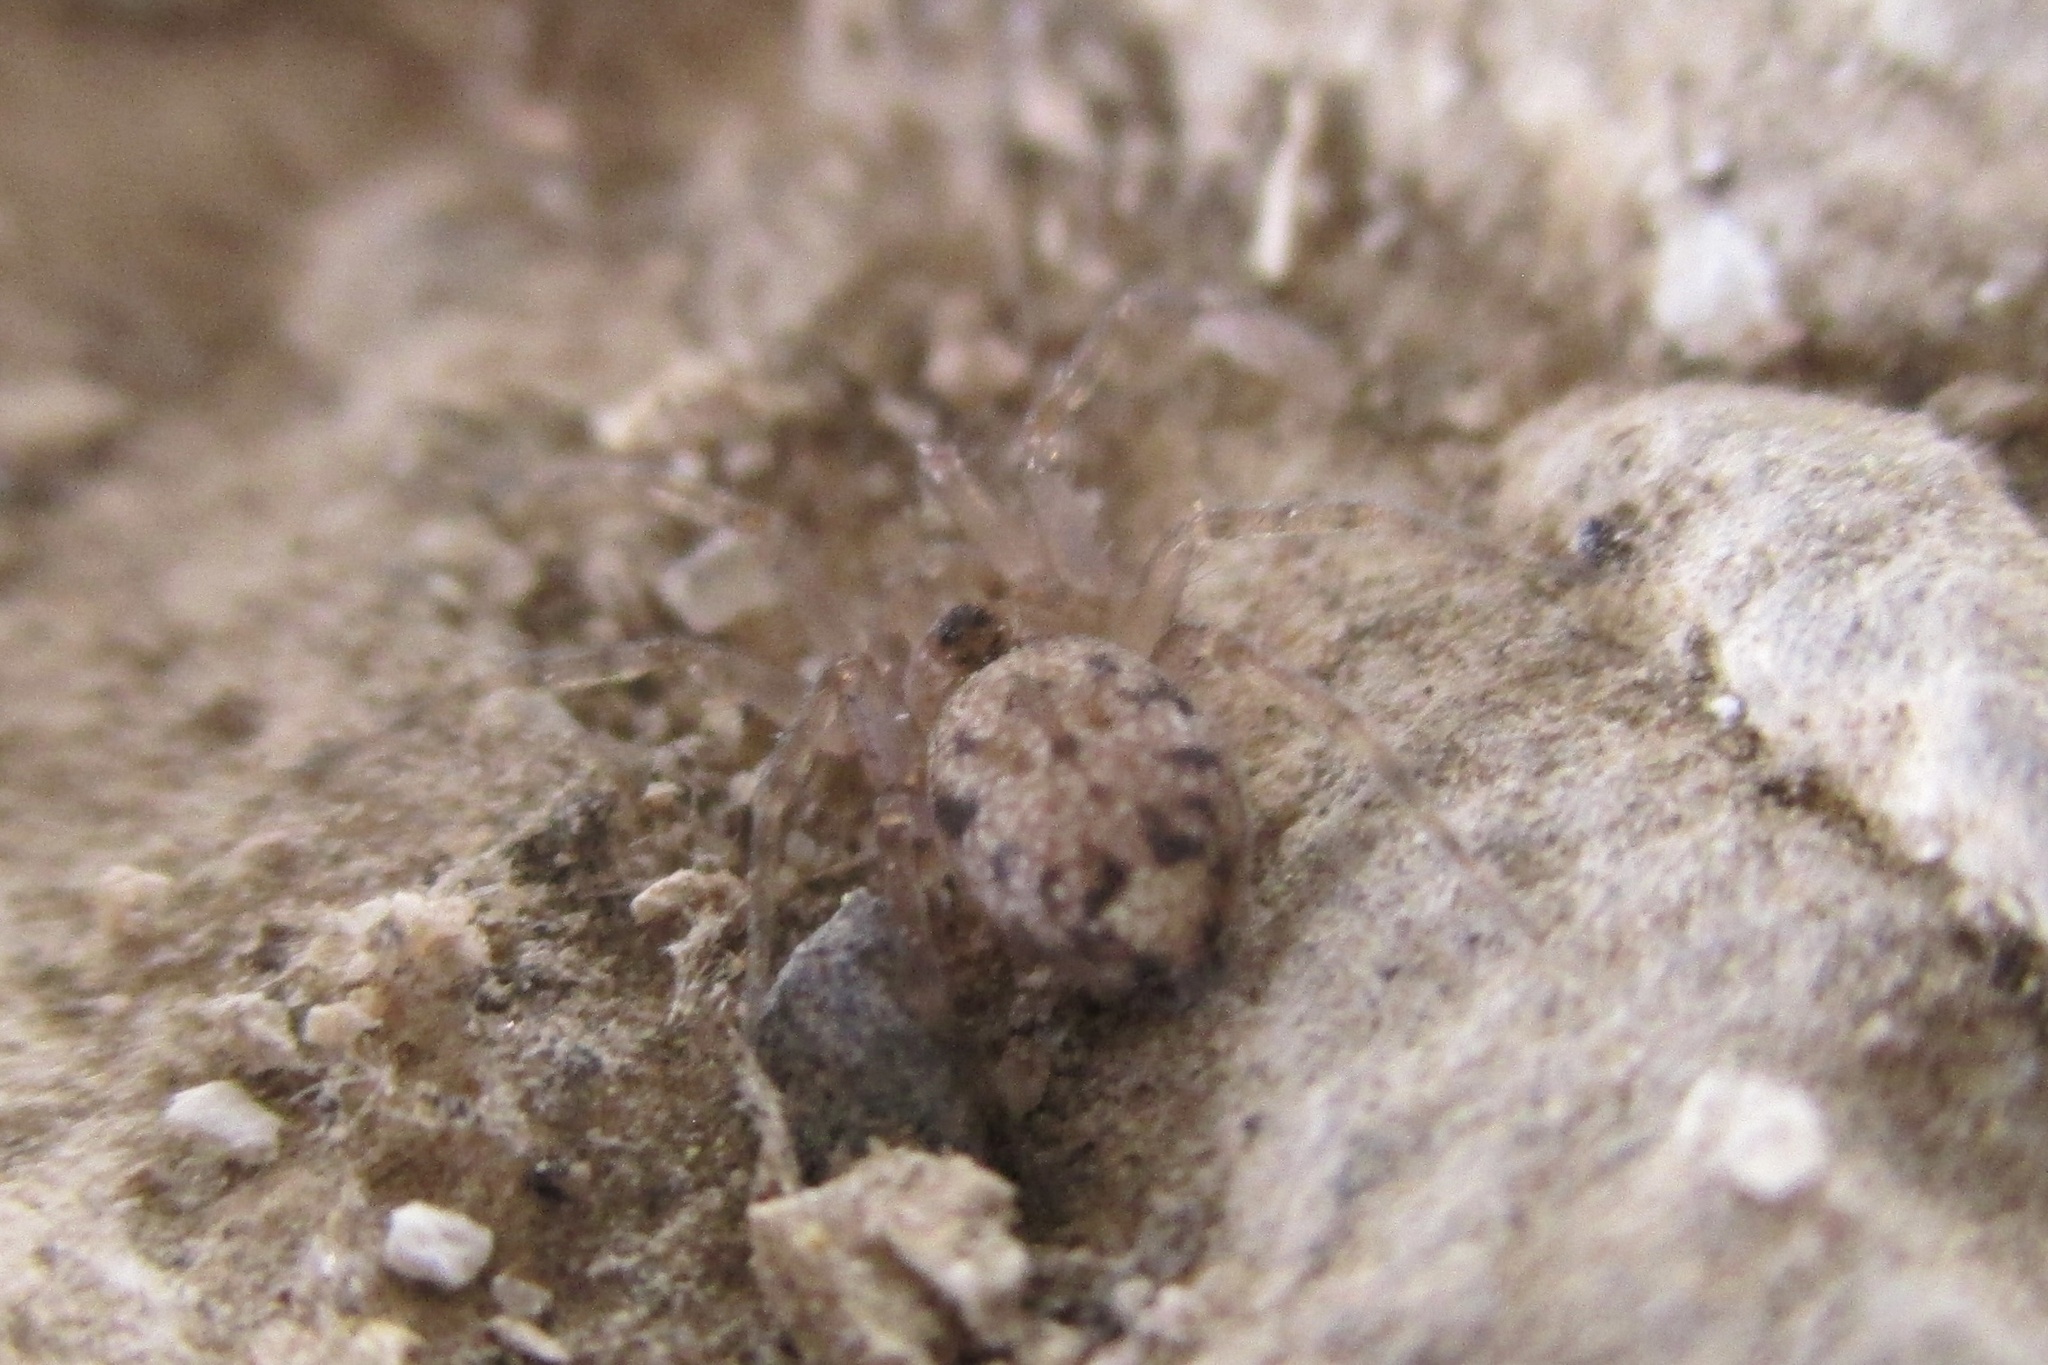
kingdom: Animalia
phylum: Arthropoda
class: Arachnida
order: Araneae
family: Oecobiidae
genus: Oecobius
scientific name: Oecobius
